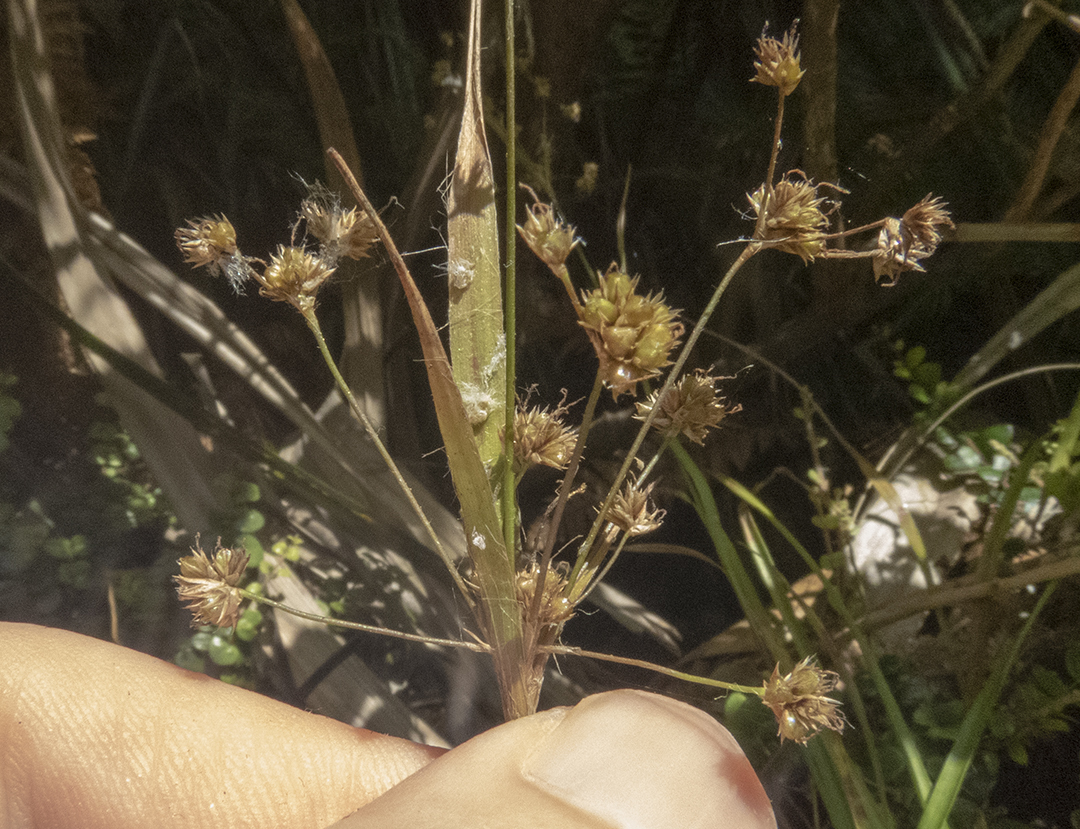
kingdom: Plantae
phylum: Tracheophyta
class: Liliopsida
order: Poales
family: Juncaceae
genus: Juncus
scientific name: Juncus planifolius
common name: Broadleaf rush
